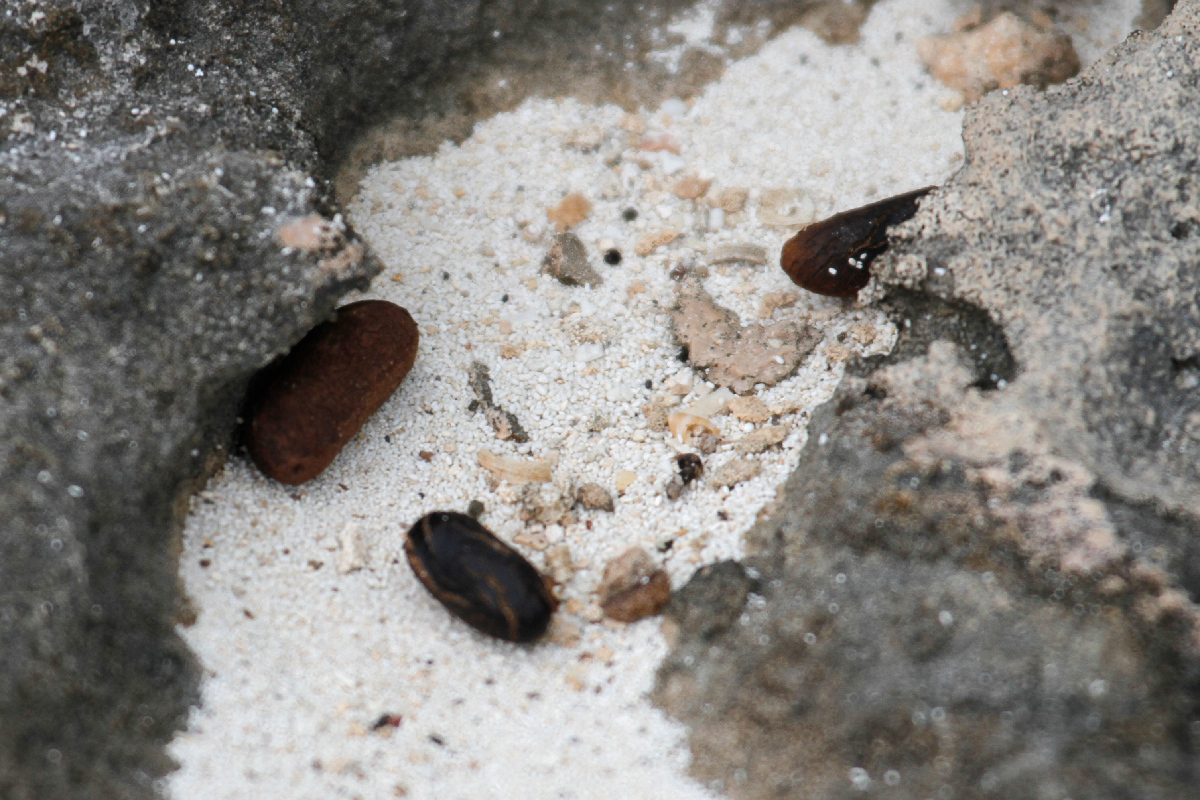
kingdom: Animalia
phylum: Chordata
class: Mammalia
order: Rodentia
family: Capromyidae
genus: Geocapromys
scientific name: Geocapromys ingrahami
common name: Bahamian hutia
